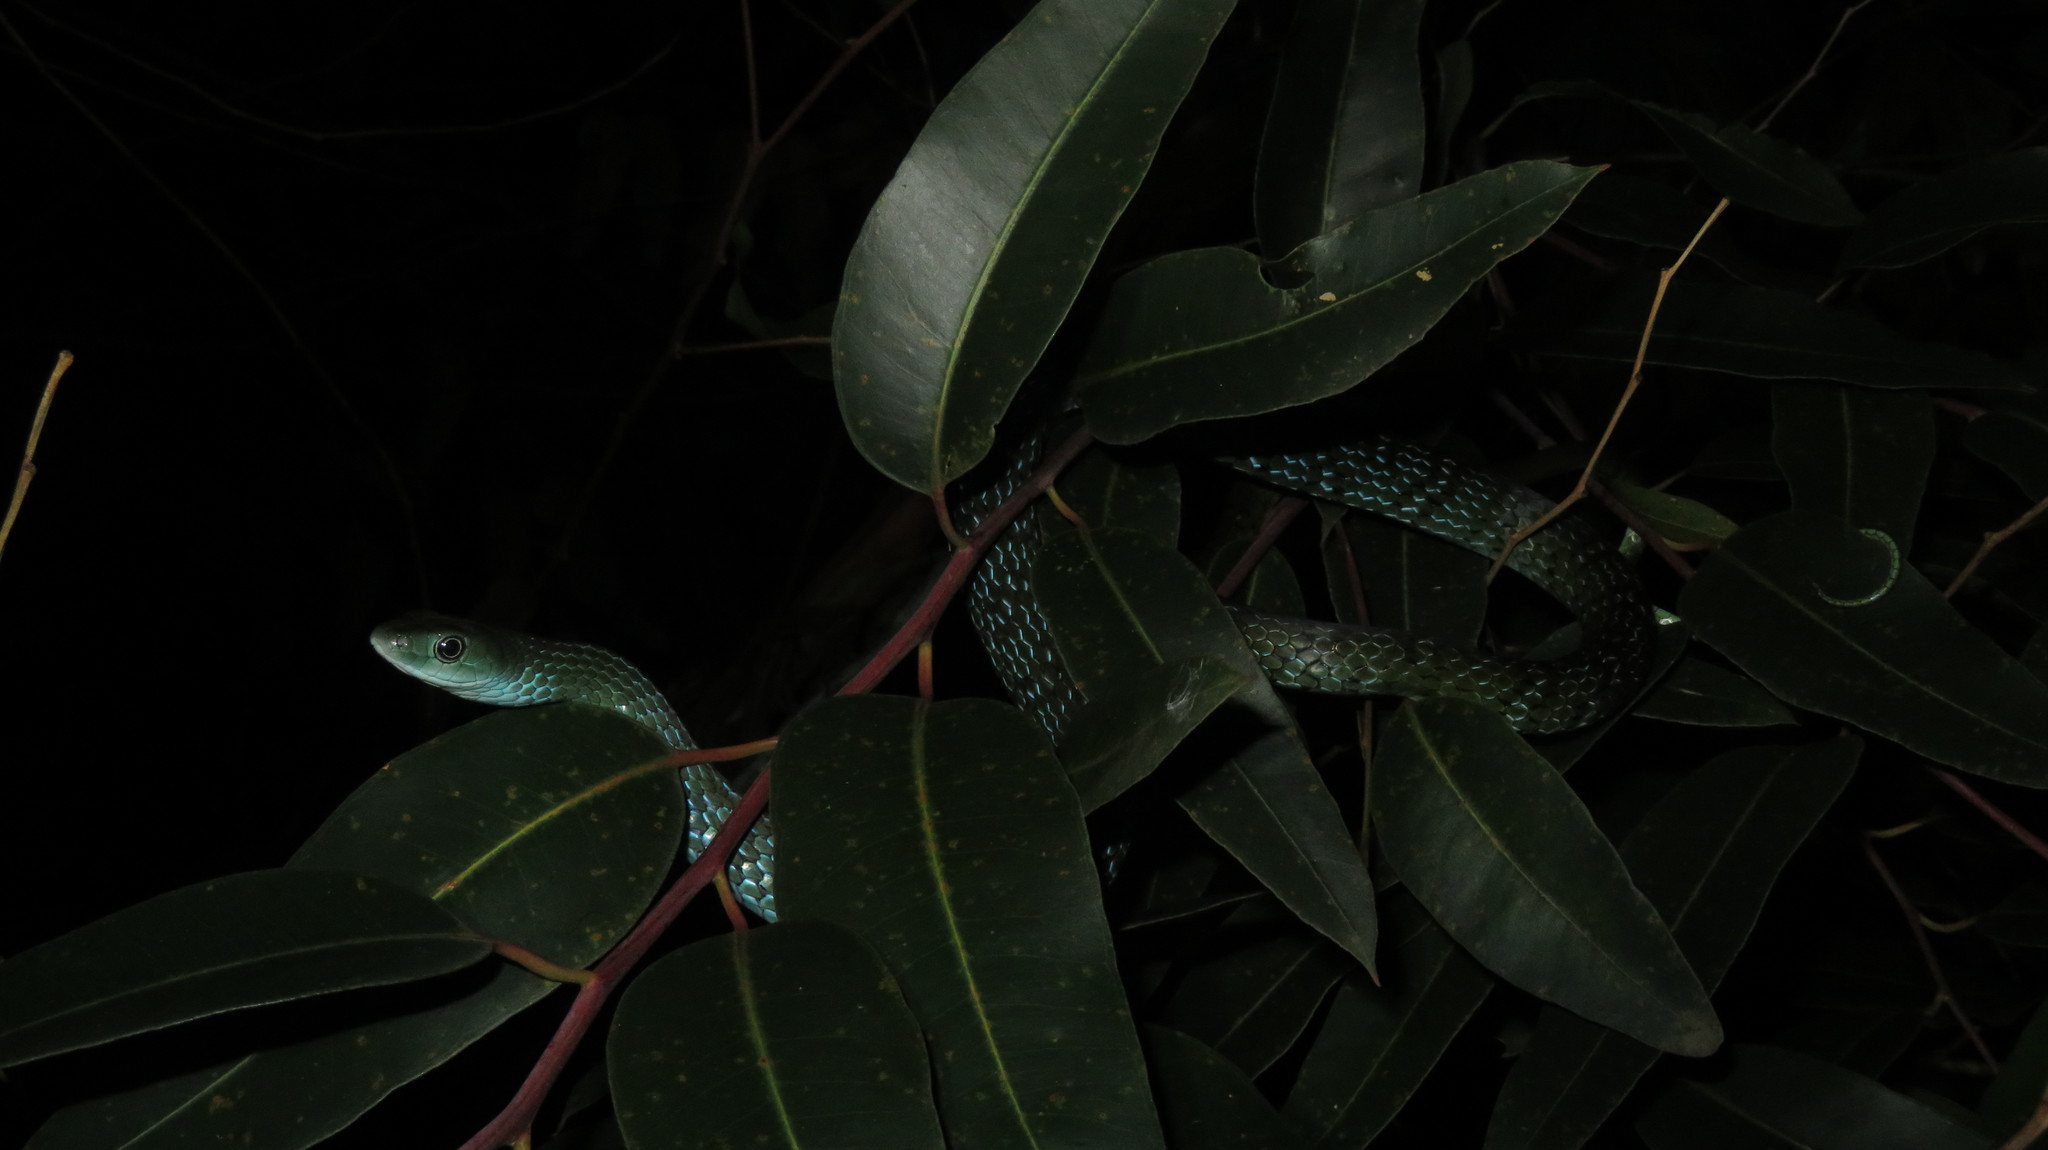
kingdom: Animalia
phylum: Chordata
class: Squamata
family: Colubridae
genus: Philothamnus
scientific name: Philothamnus macrops
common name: Large-eyed green snake
